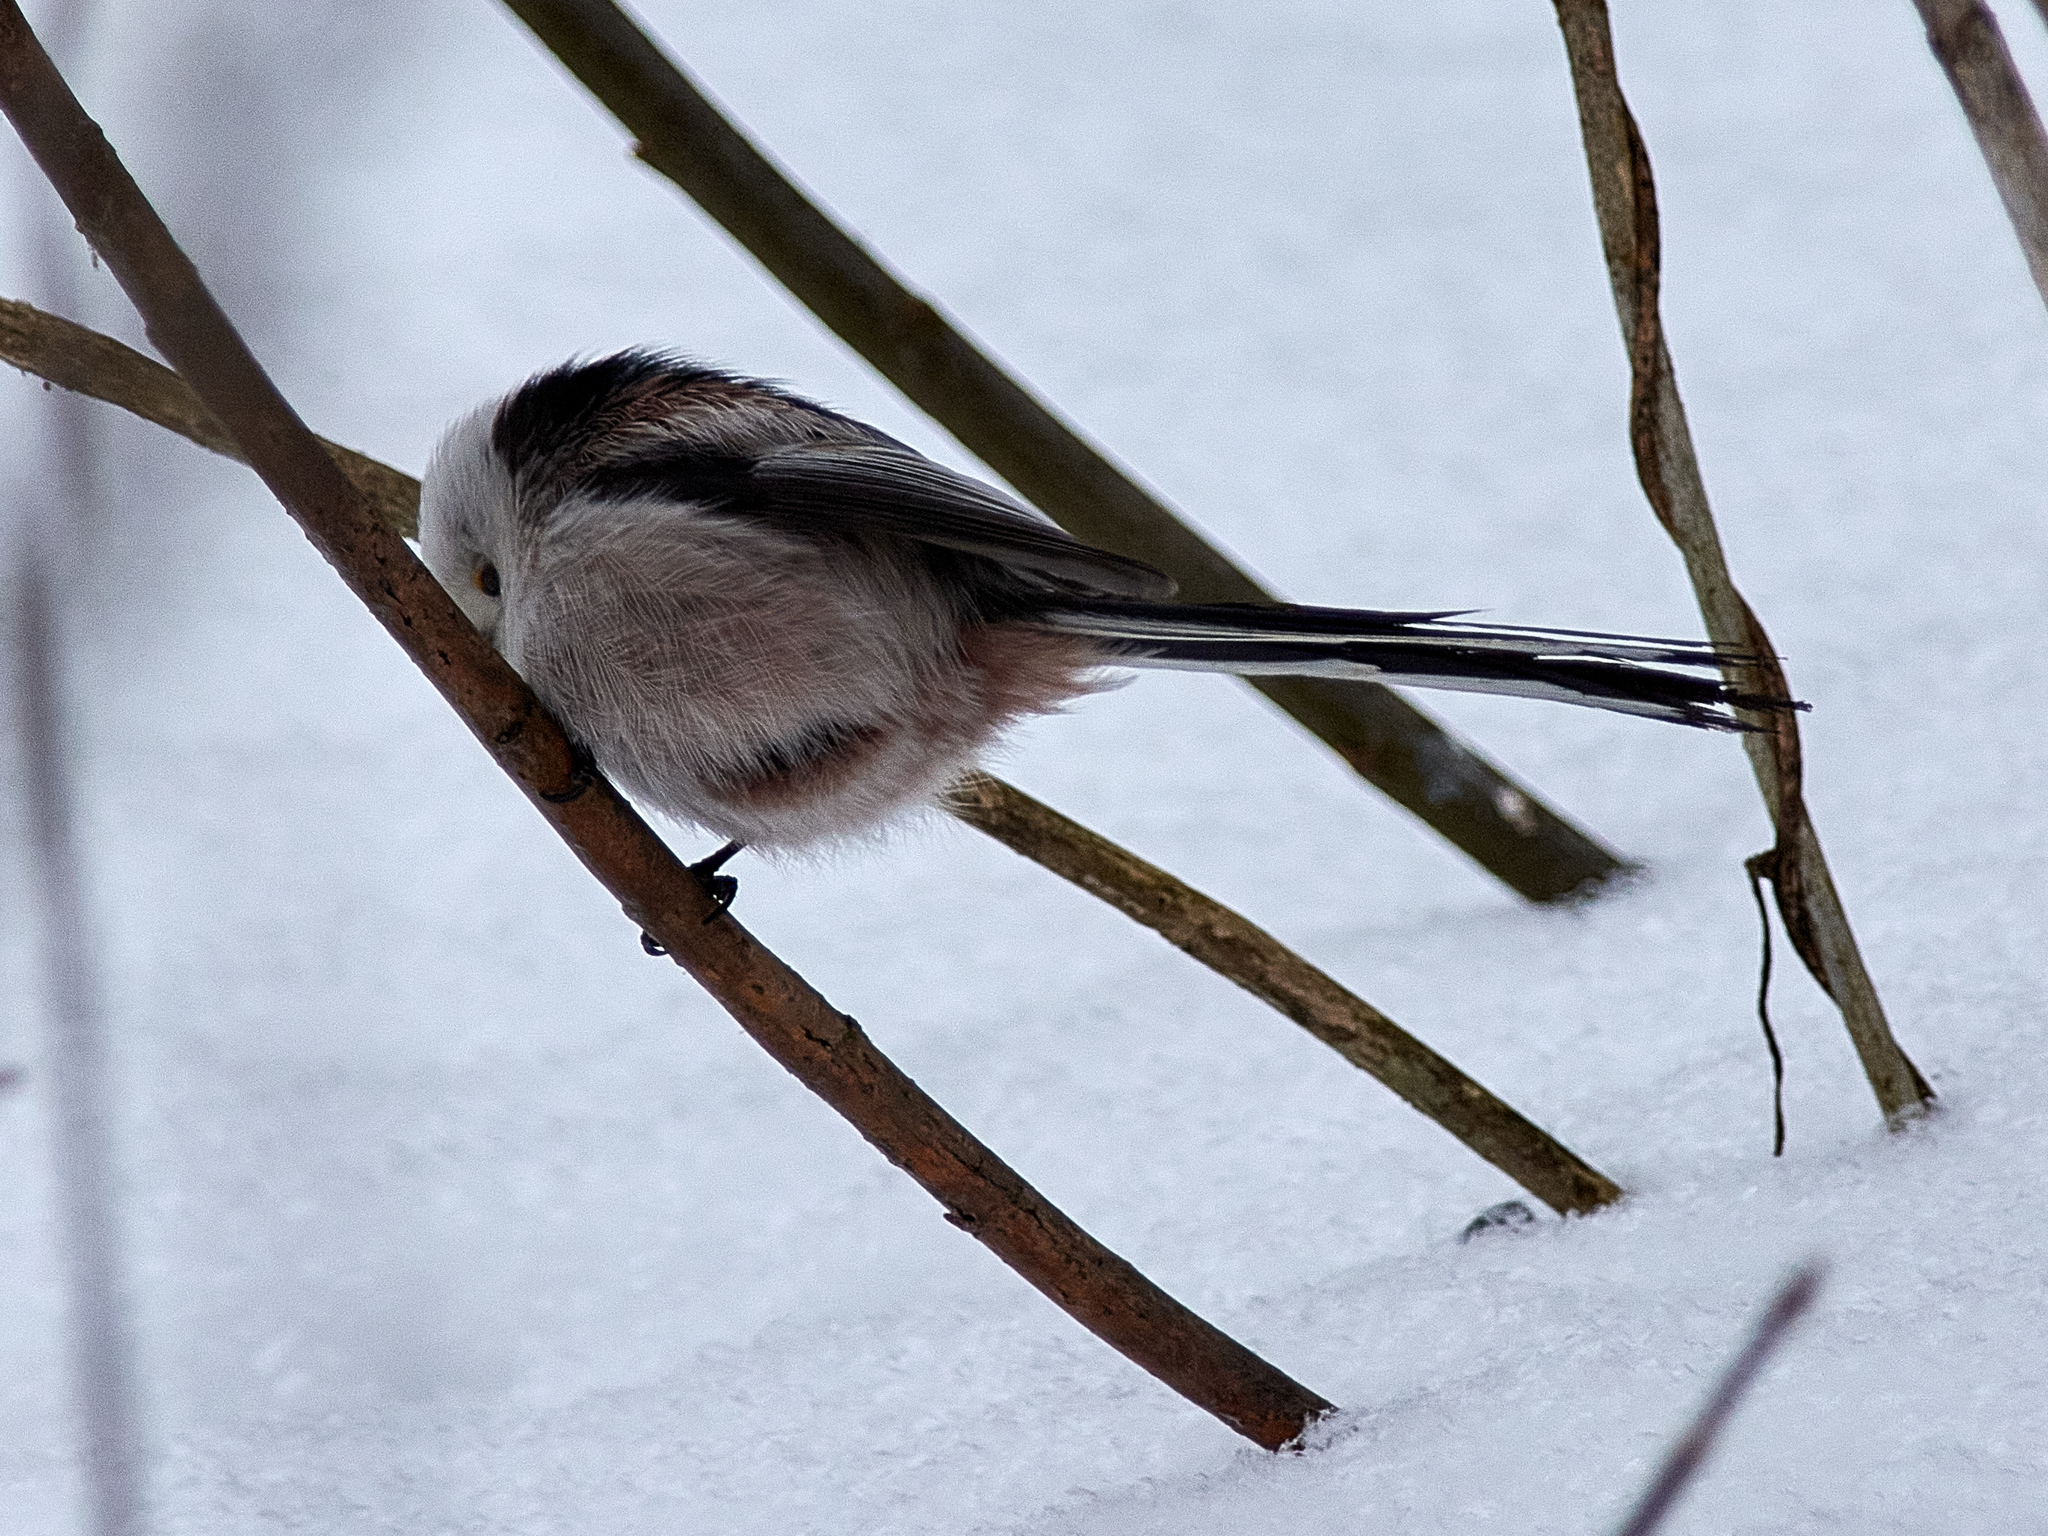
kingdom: Animalia
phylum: Chordata
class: Aves
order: Passeriformes
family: Aegithalidae
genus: Aegithalos
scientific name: Aegithalos caudatus
